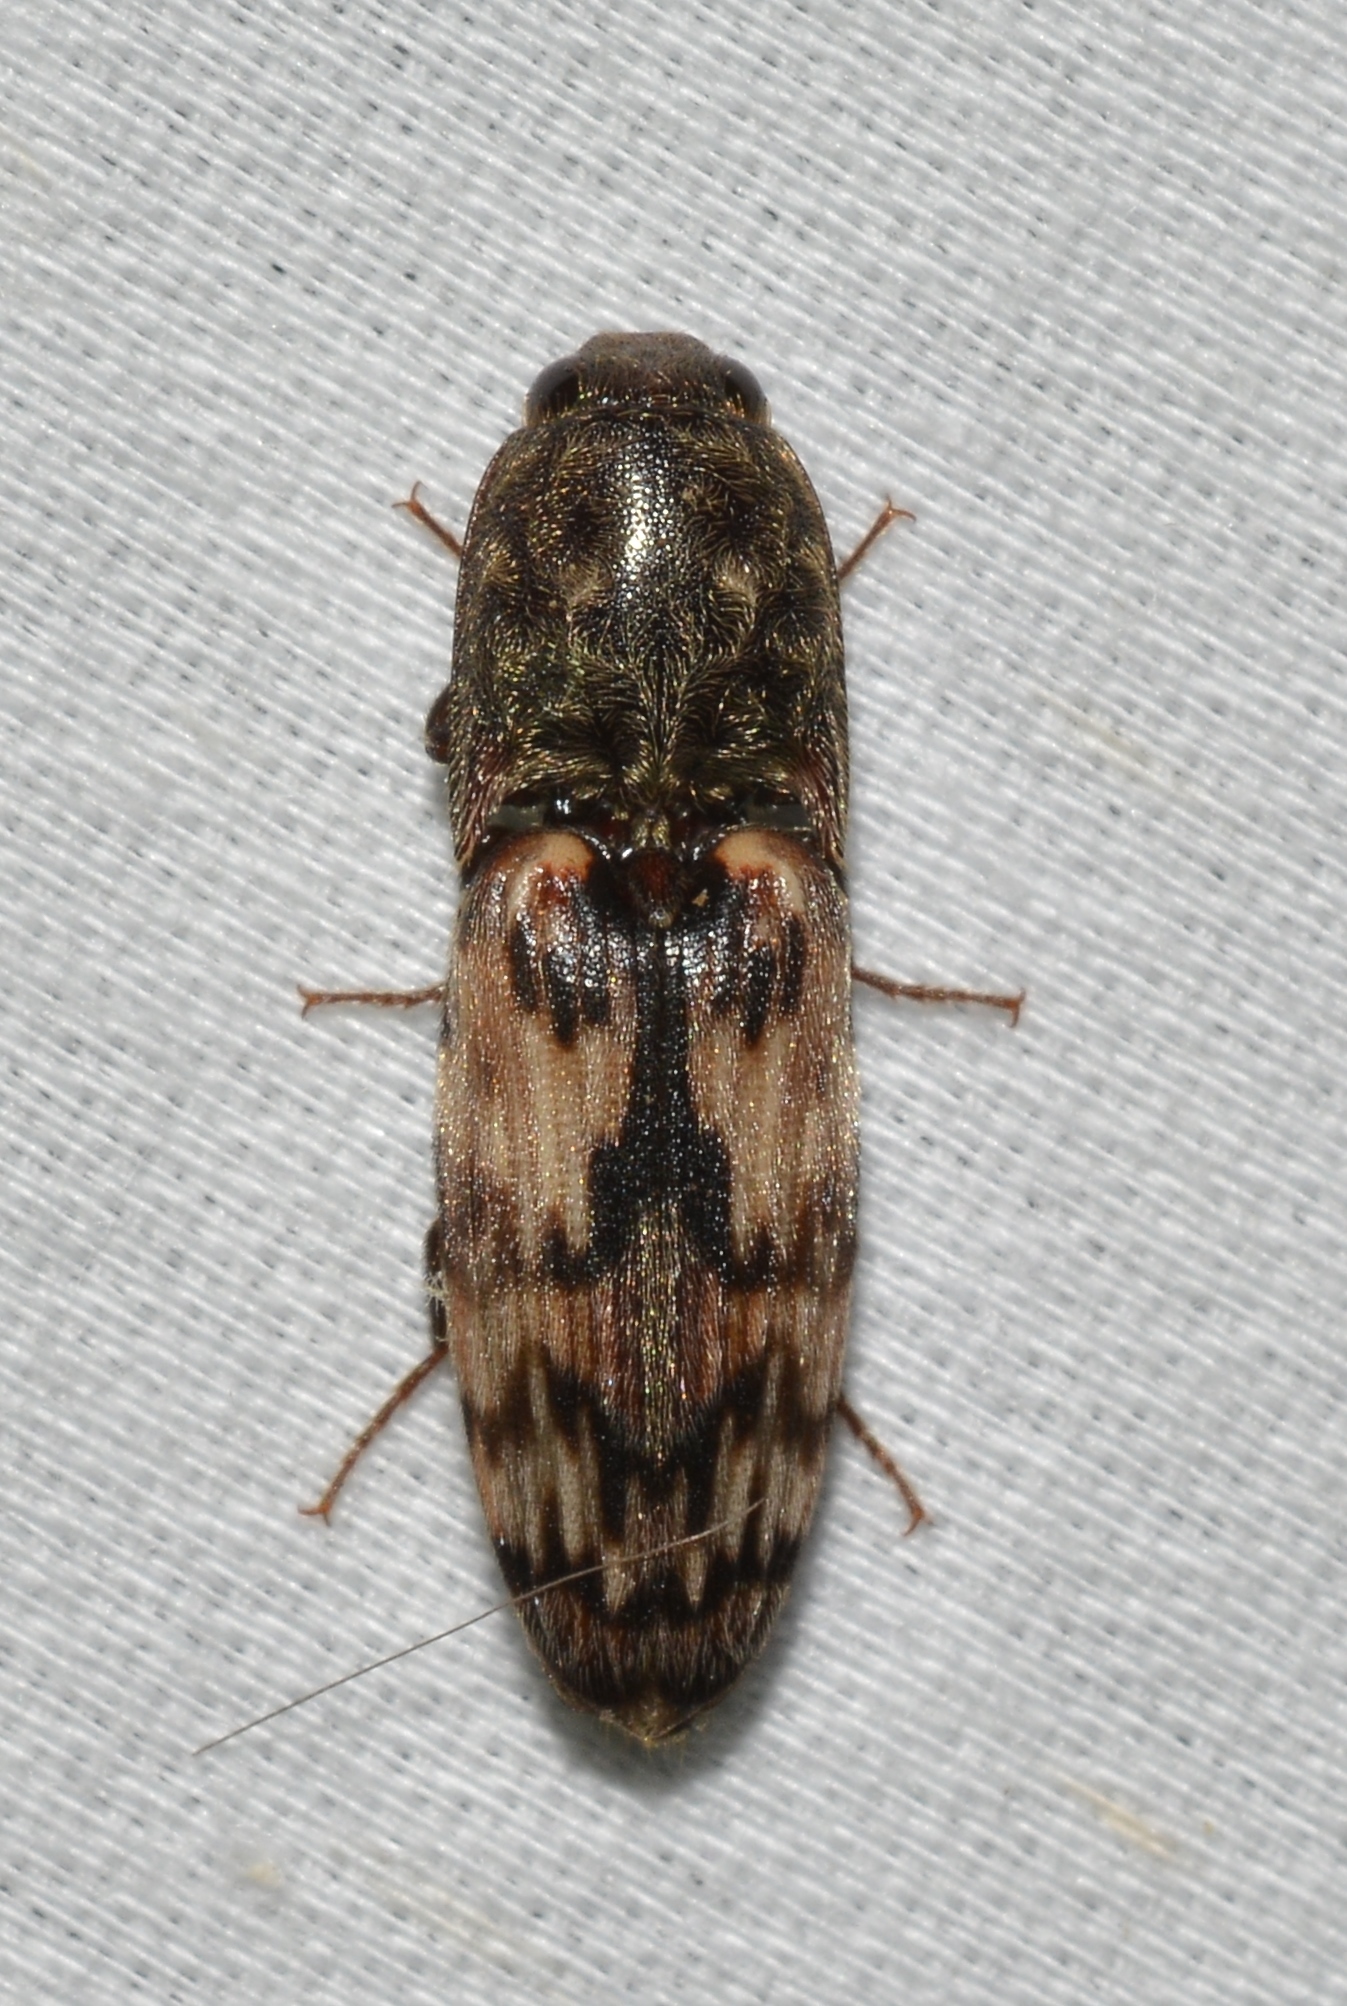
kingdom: Animalia
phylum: Arthropoda
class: Insecta
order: Coleoptera
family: Elateridae
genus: Pherhimius
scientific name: Pherhimius fascicularis
